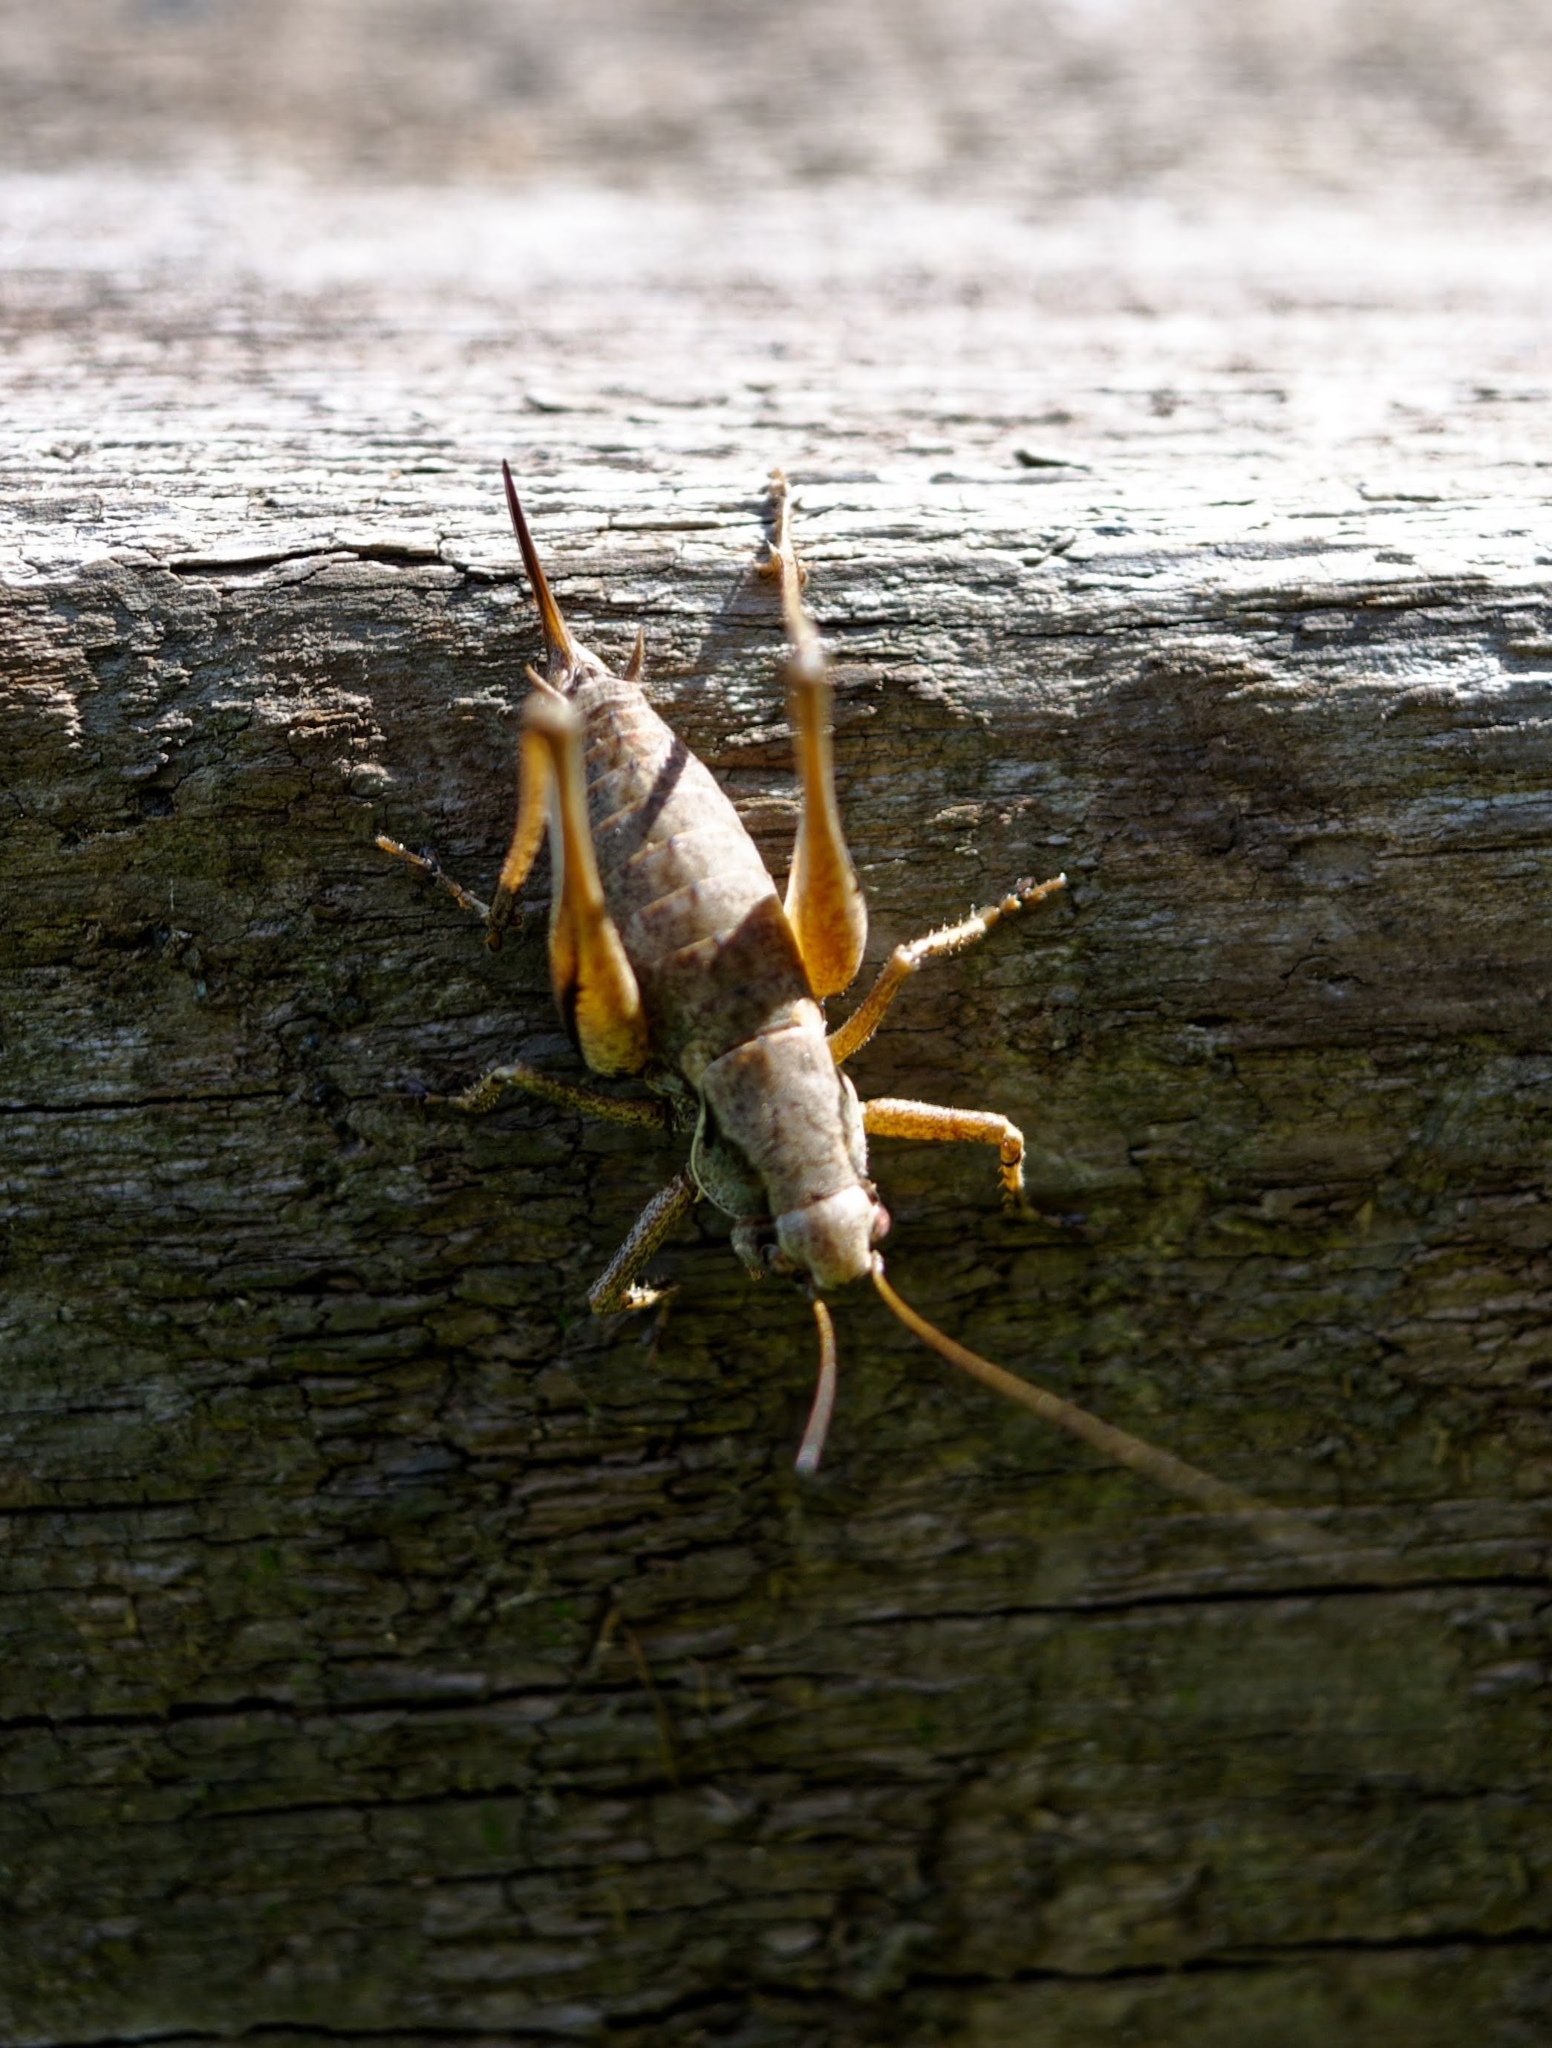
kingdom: Animalia
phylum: Arthropoda
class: Insecta
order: Orthoptera
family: Tettigoniidae
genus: Pholidoptera
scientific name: Pholidoptera griseoaptera
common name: Dark bush-cricket
